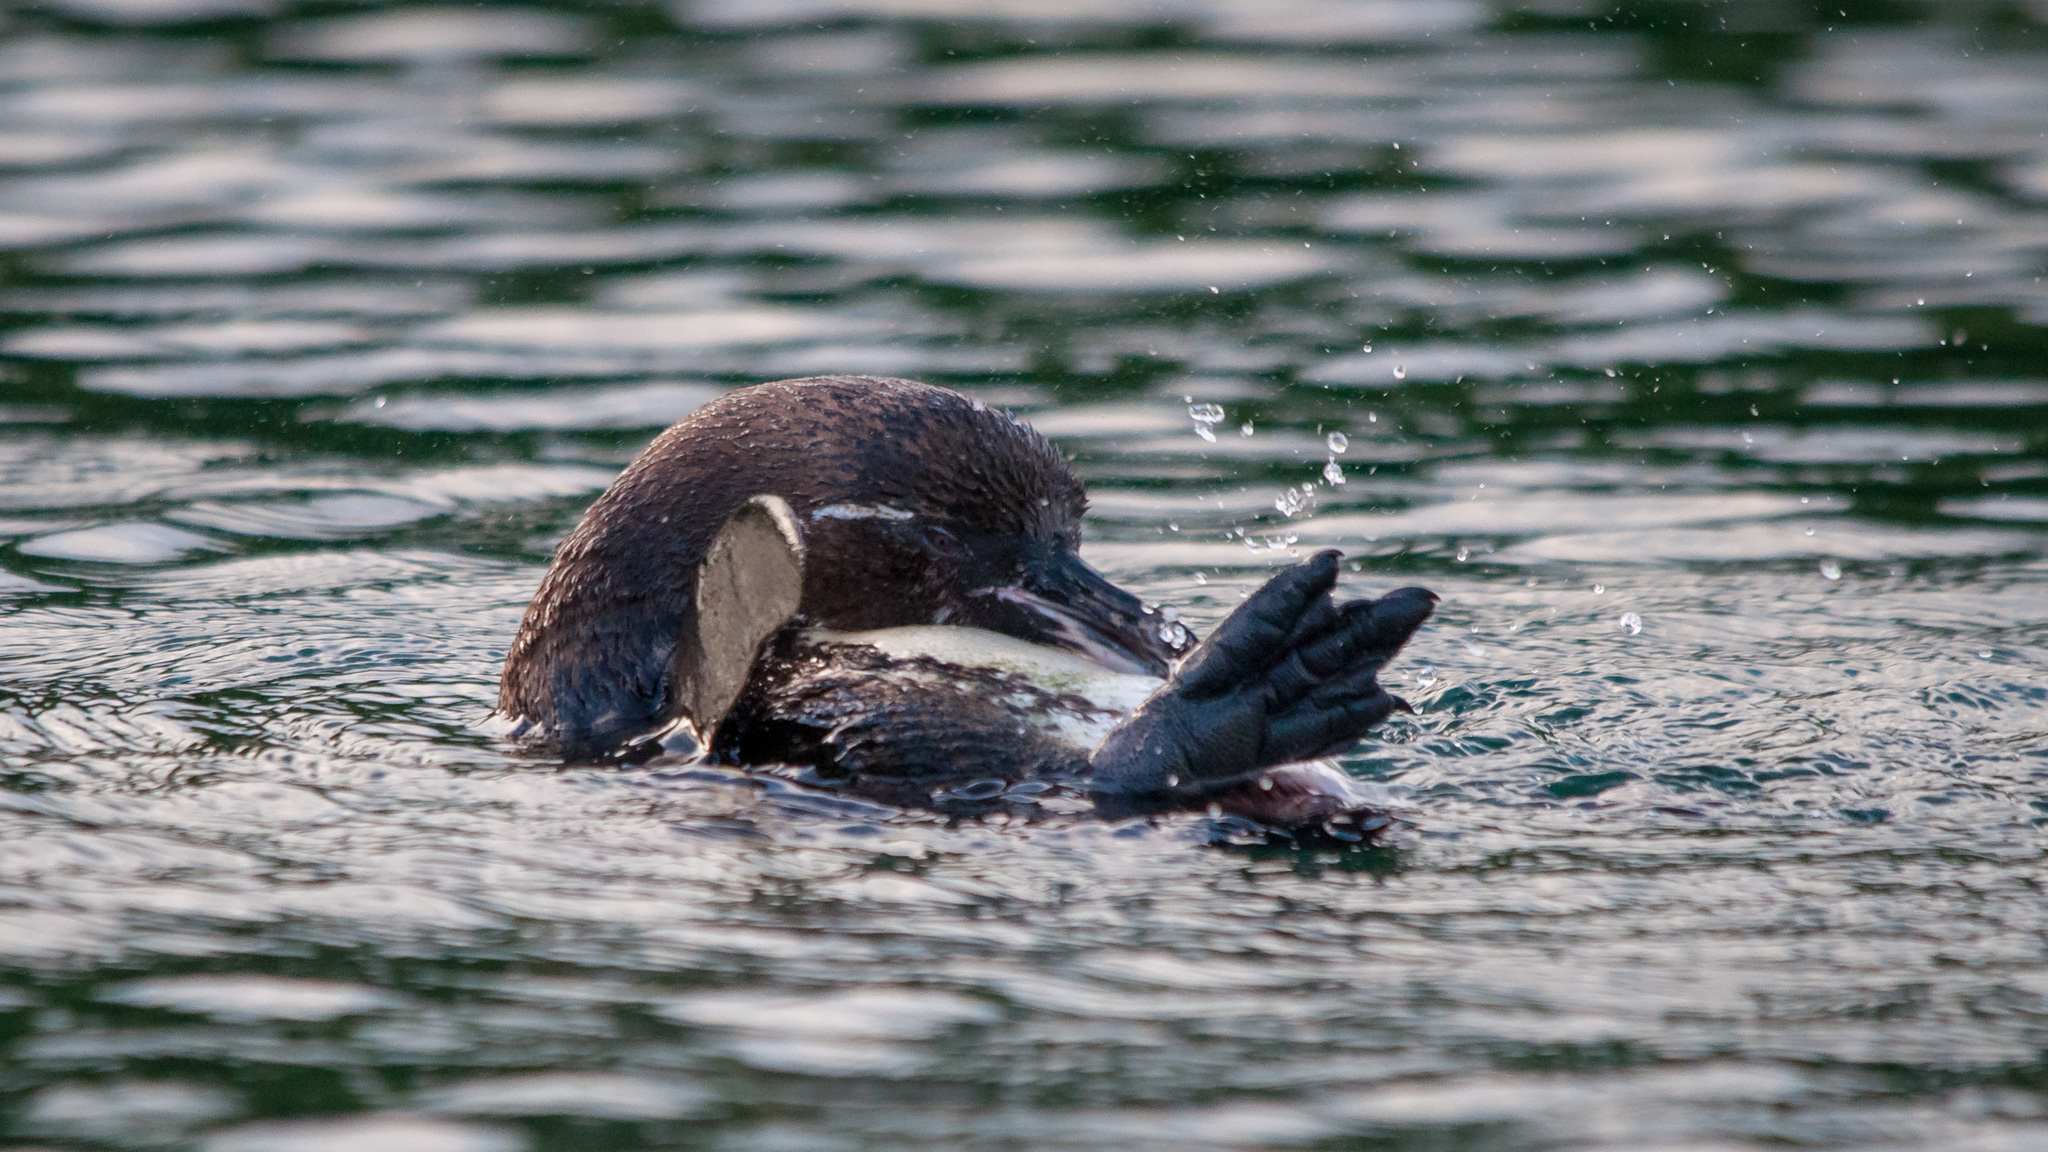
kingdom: Animalia
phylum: Chordata
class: Aves
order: Sphenisciformes
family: Spheniscidae
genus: Spheniscus
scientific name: Spheniscus mendiculus
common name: Galapagos penguin
